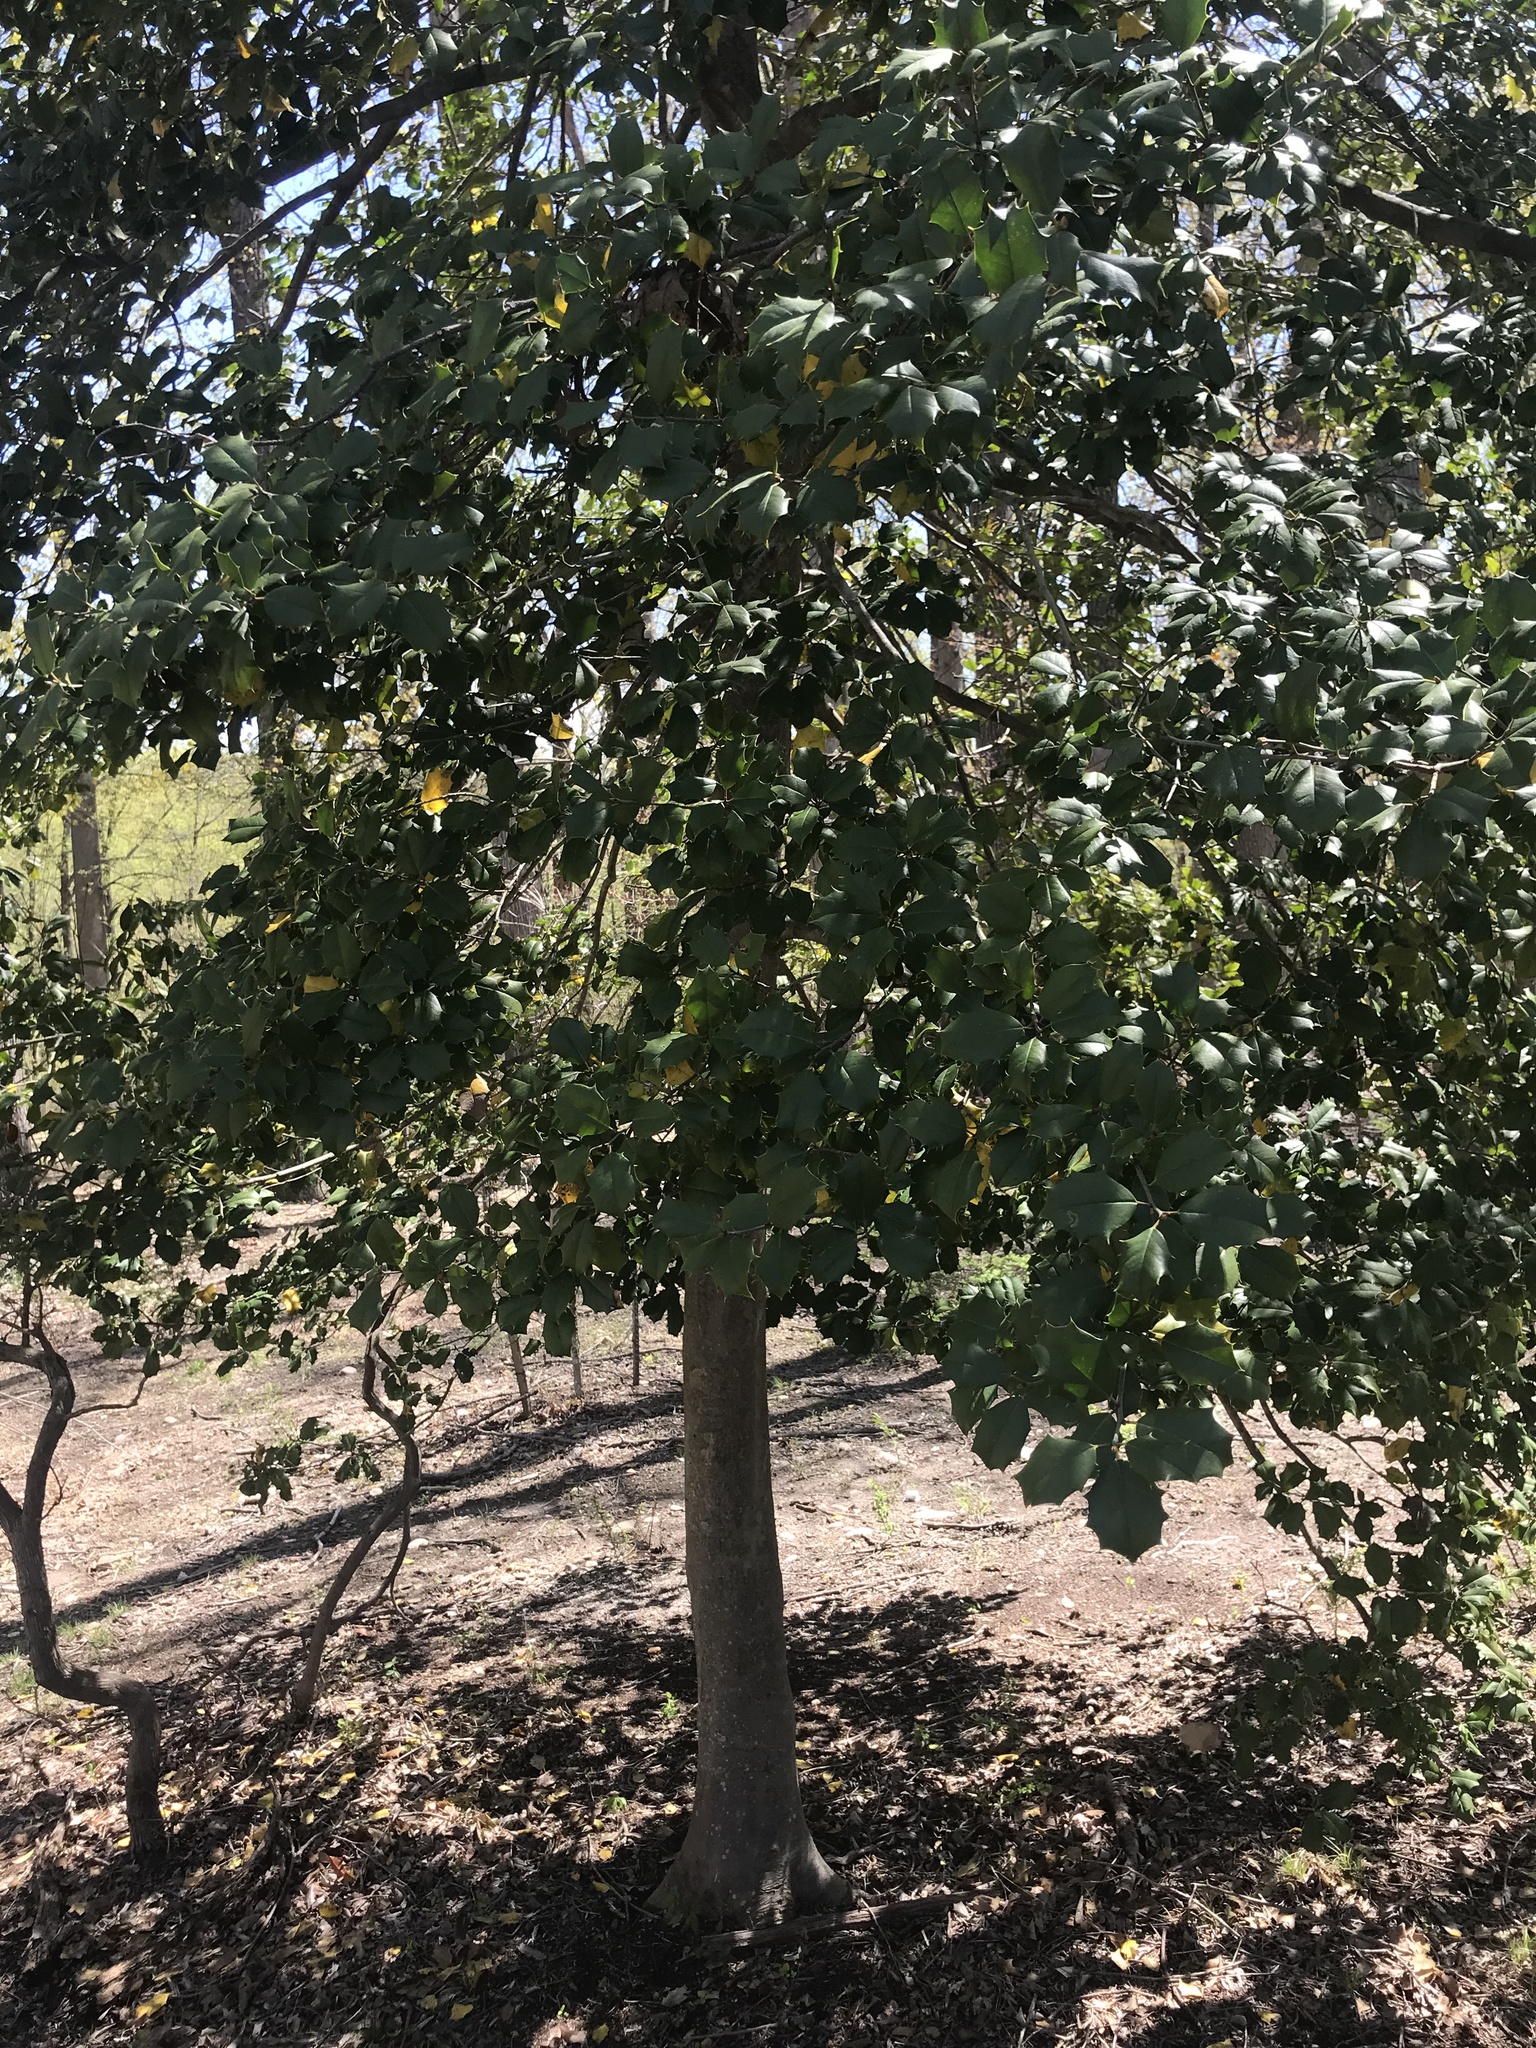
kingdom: Plantae
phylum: Tracheophyta
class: Magnoliopsida
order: Aquifoliales
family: Aquifoliaceae
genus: Ilex
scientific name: Ilex opaca
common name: American holly
